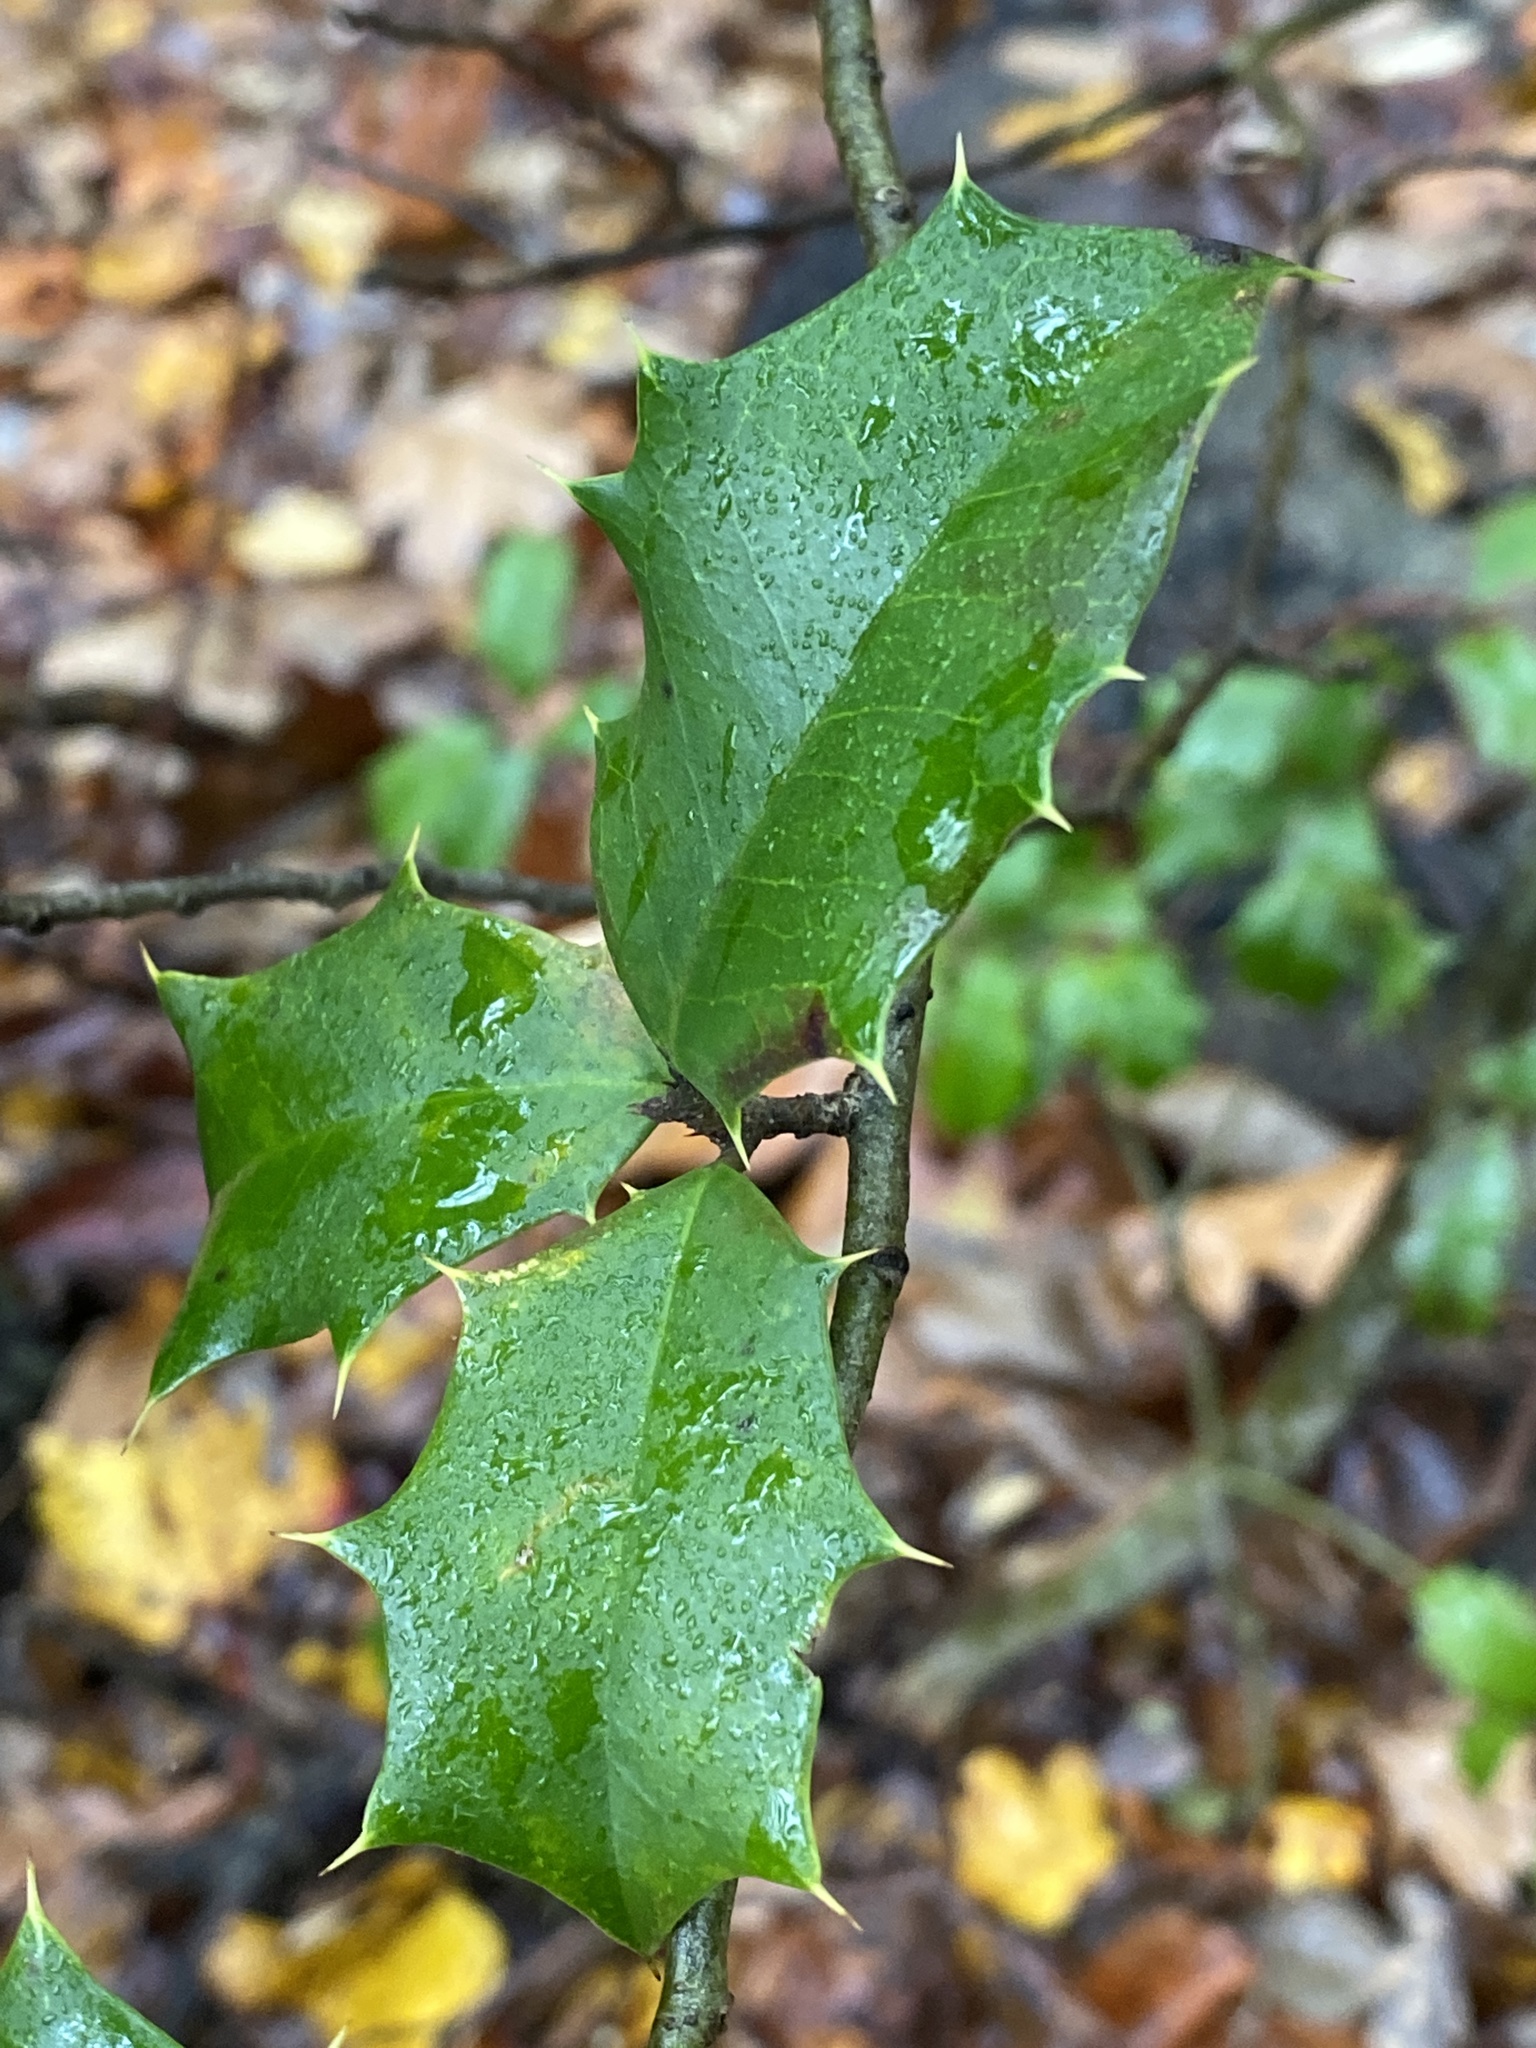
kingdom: Plantae
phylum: Tracheophyta
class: Magnoliopsida
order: Aquifoliales
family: Aquifoliaceae
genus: Ilex
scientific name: Ilex opaca
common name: American holly
